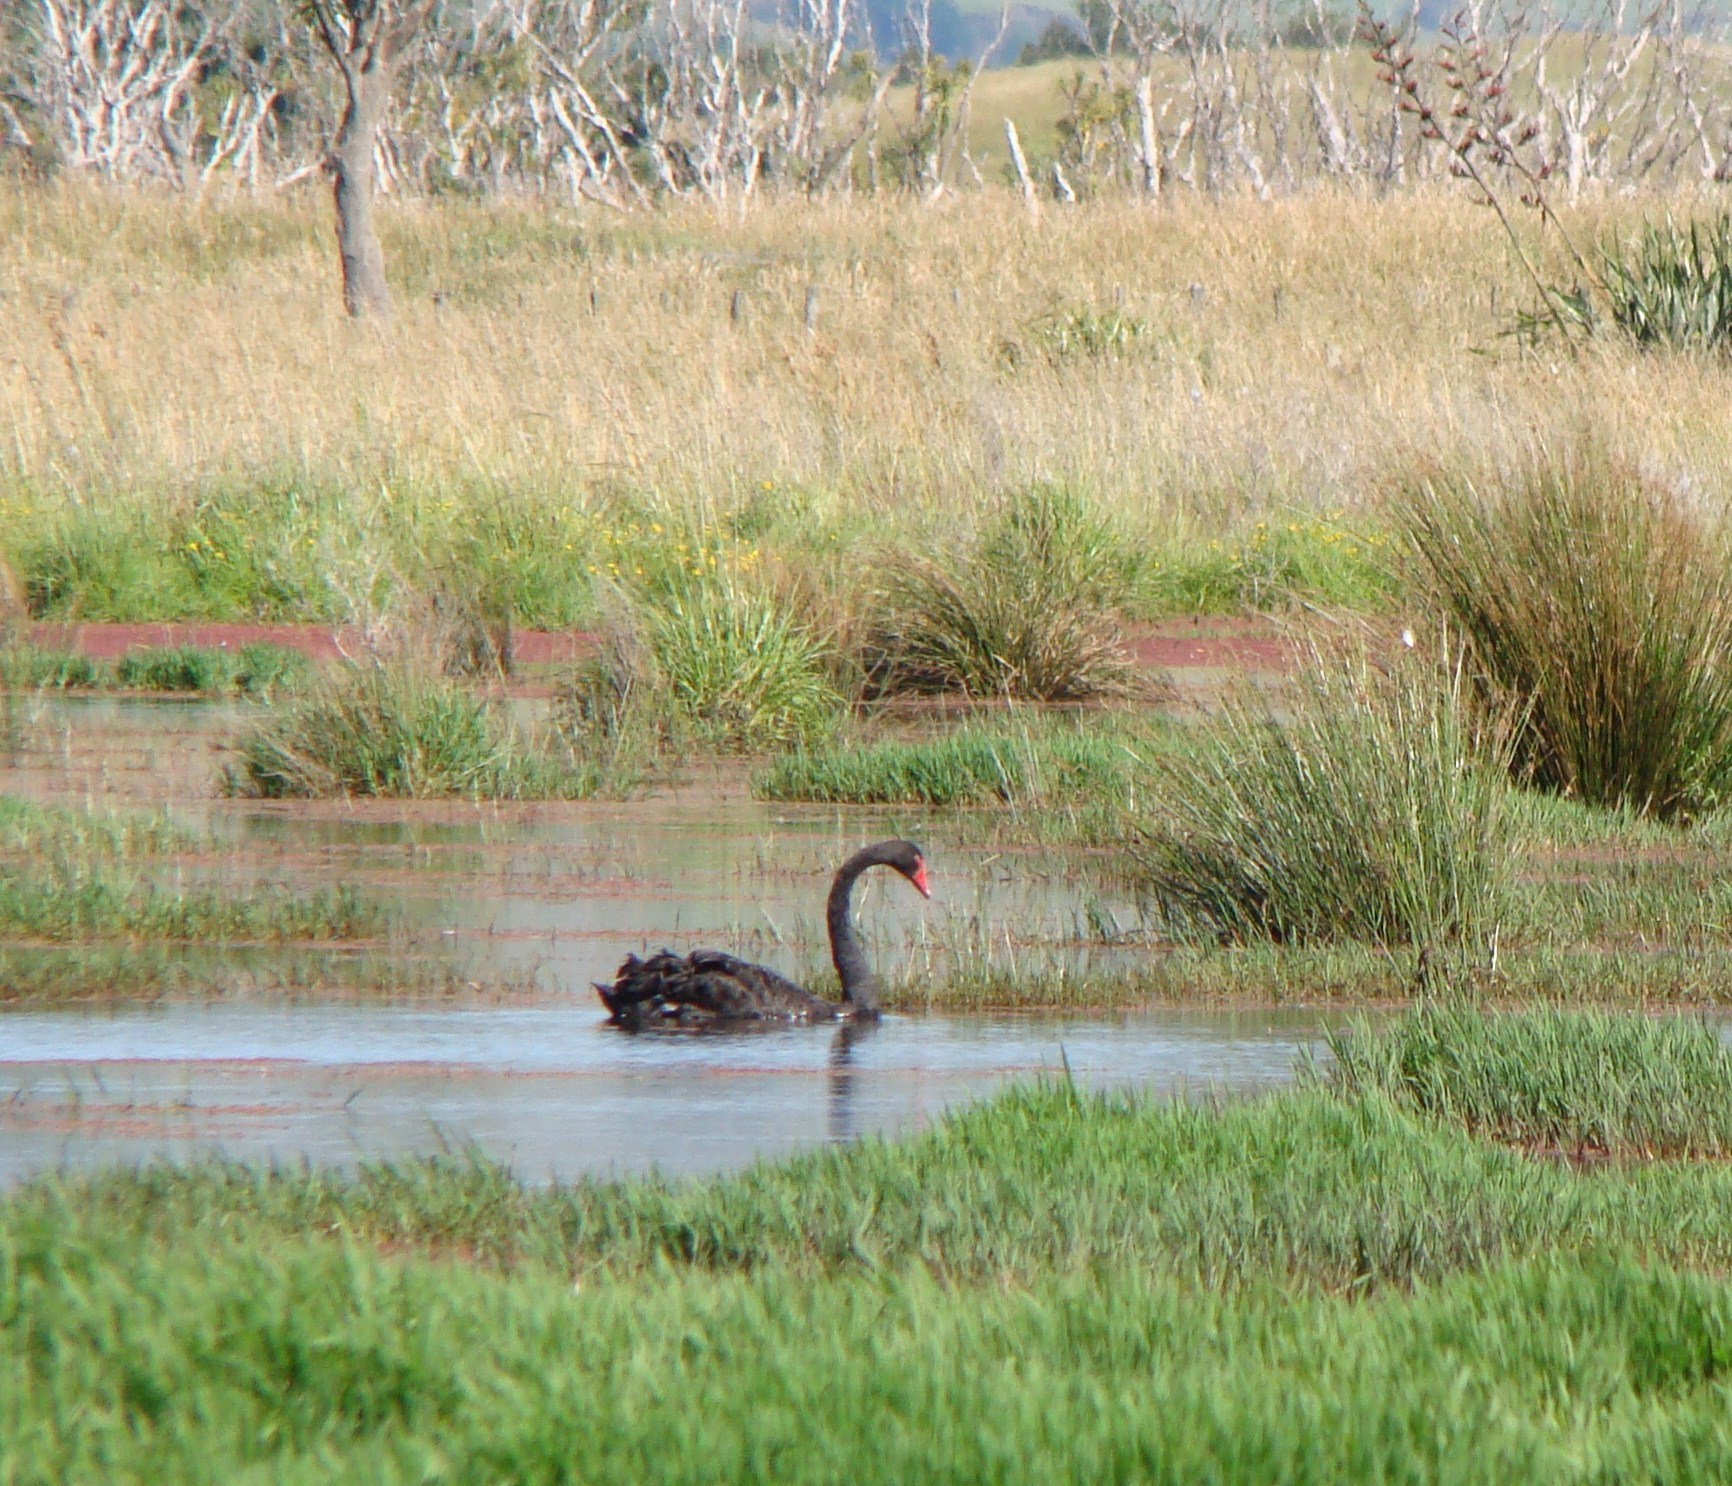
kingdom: Animalia
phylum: Chordata
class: Aves
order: Anseriformes
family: Anatidae
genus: Cygnus
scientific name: Cygnus atratus
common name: Black swan
